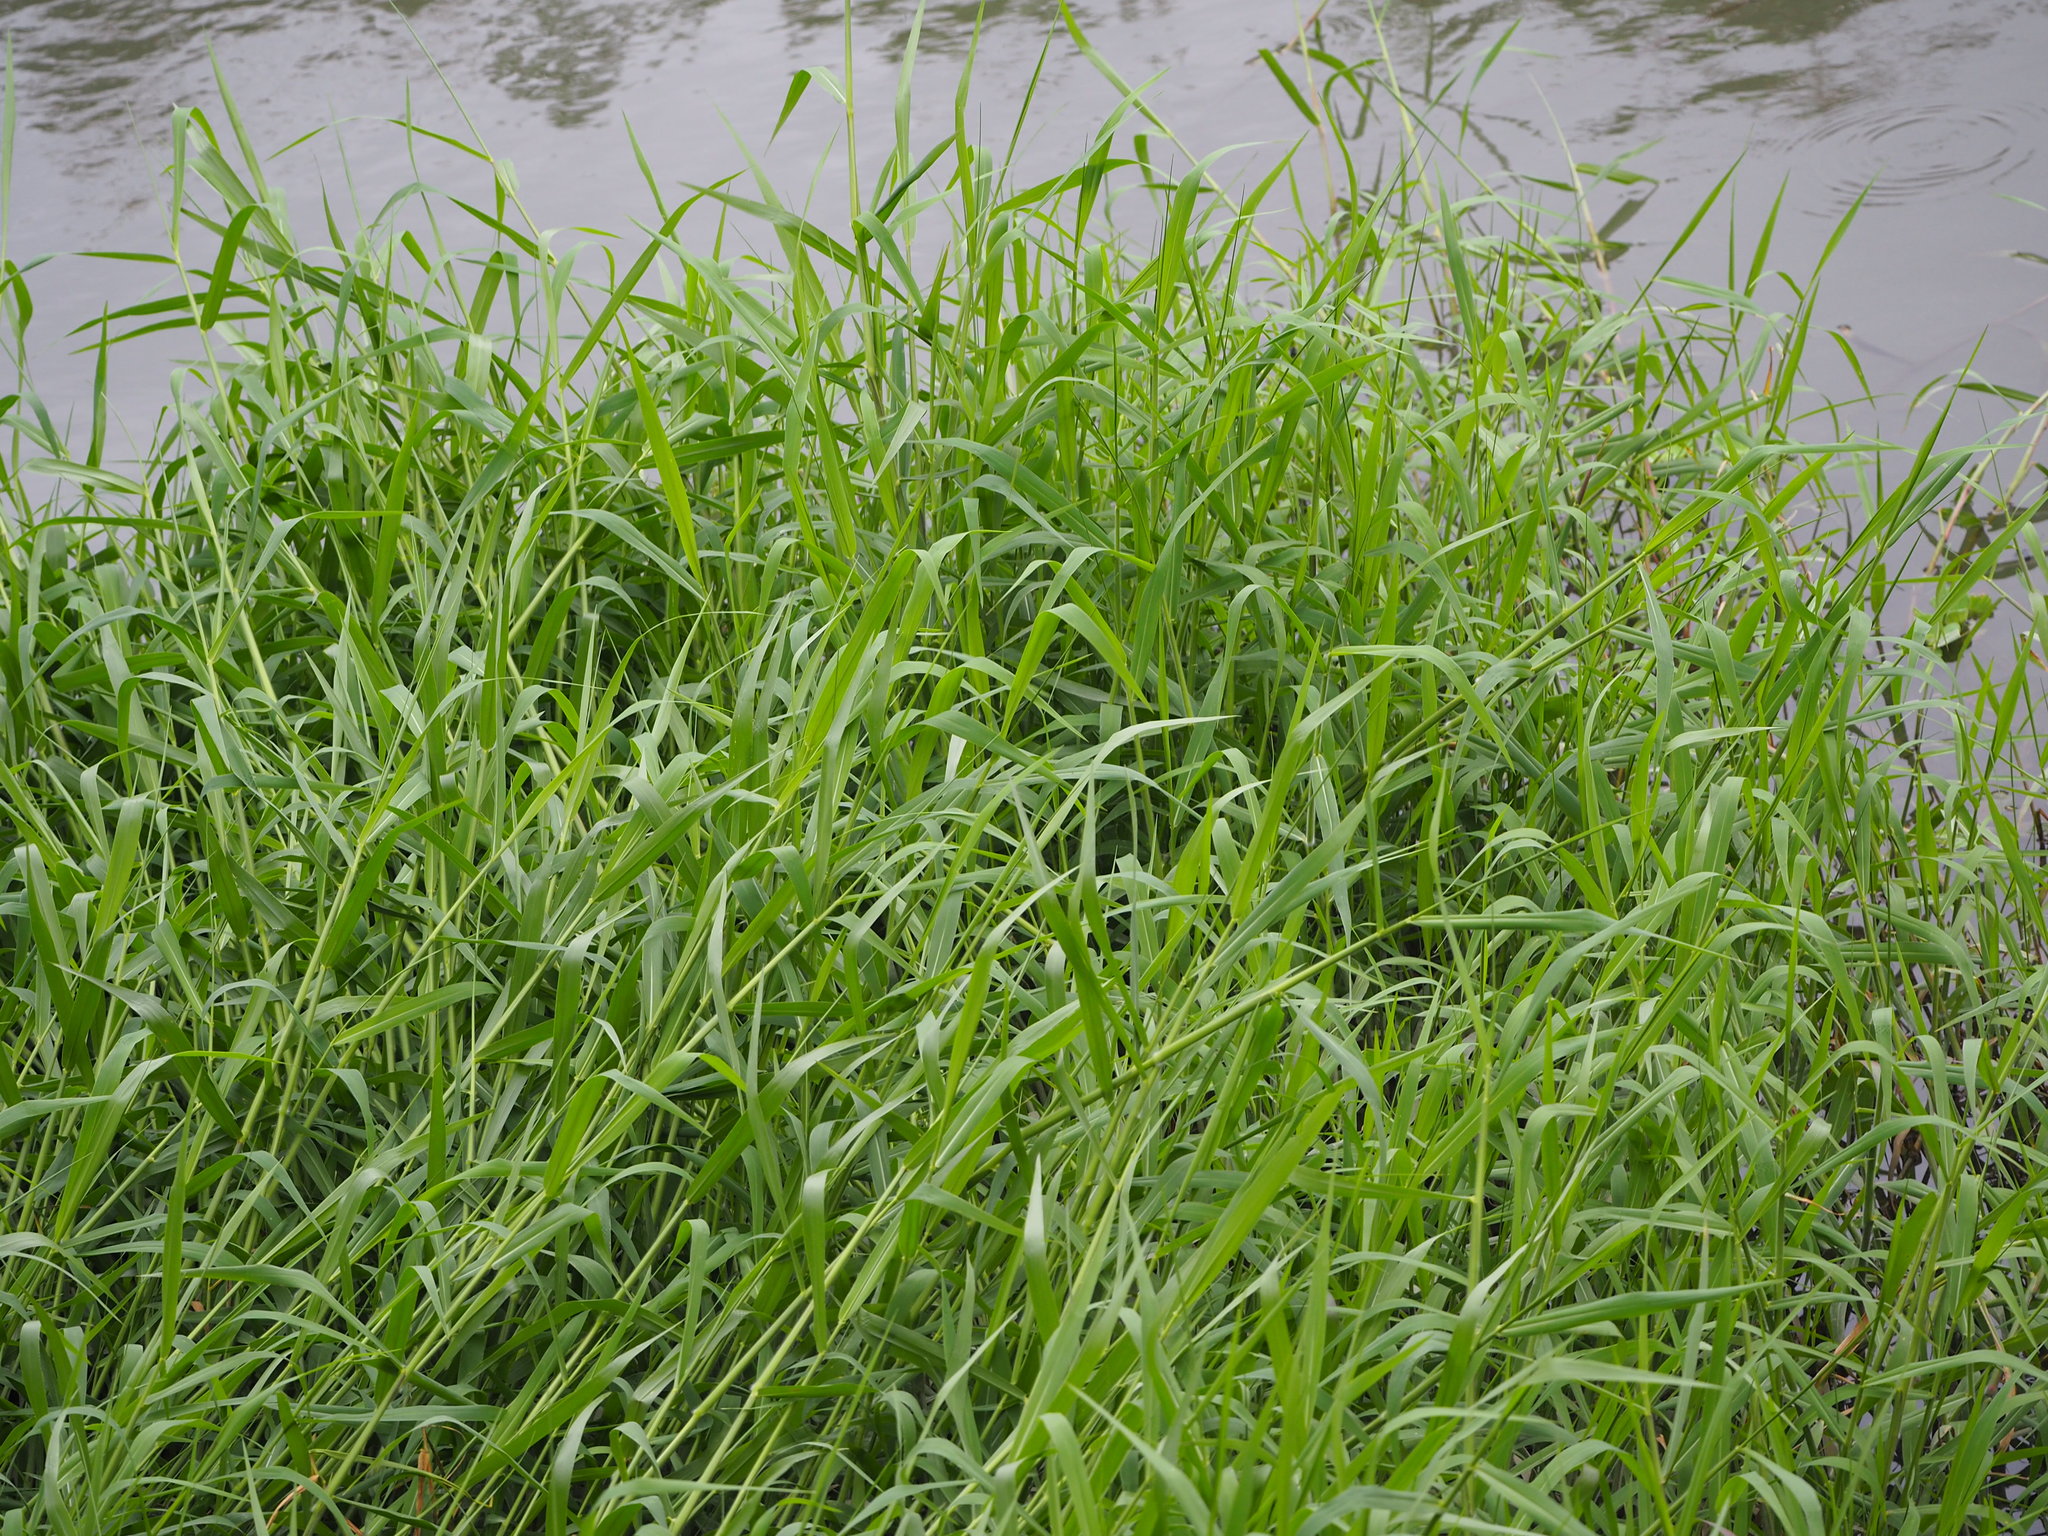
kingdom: Plantae
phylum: Tracheophyta
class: Liliopsida
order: Poales
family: Poaceae
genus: Urochloa
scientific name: Urochloa mutica
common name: Para grass
